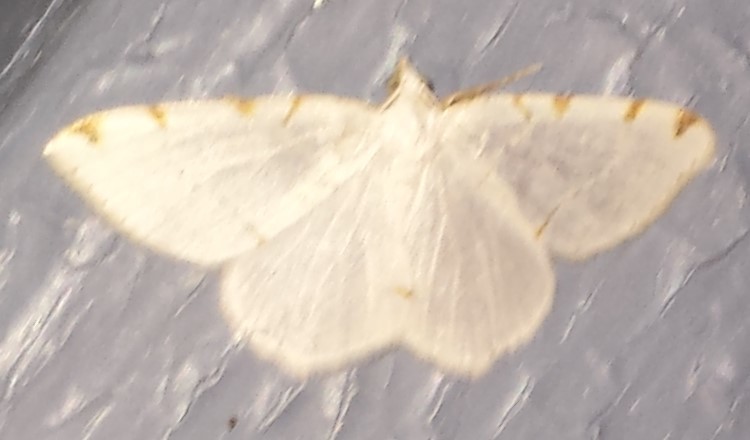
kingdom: Animalia
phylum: Arthropoda
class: Insecta
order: Lepidoptera
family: Geometridae
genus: Macaria
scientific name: Macaria pustularia
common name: Lesser maple spanworm moth
